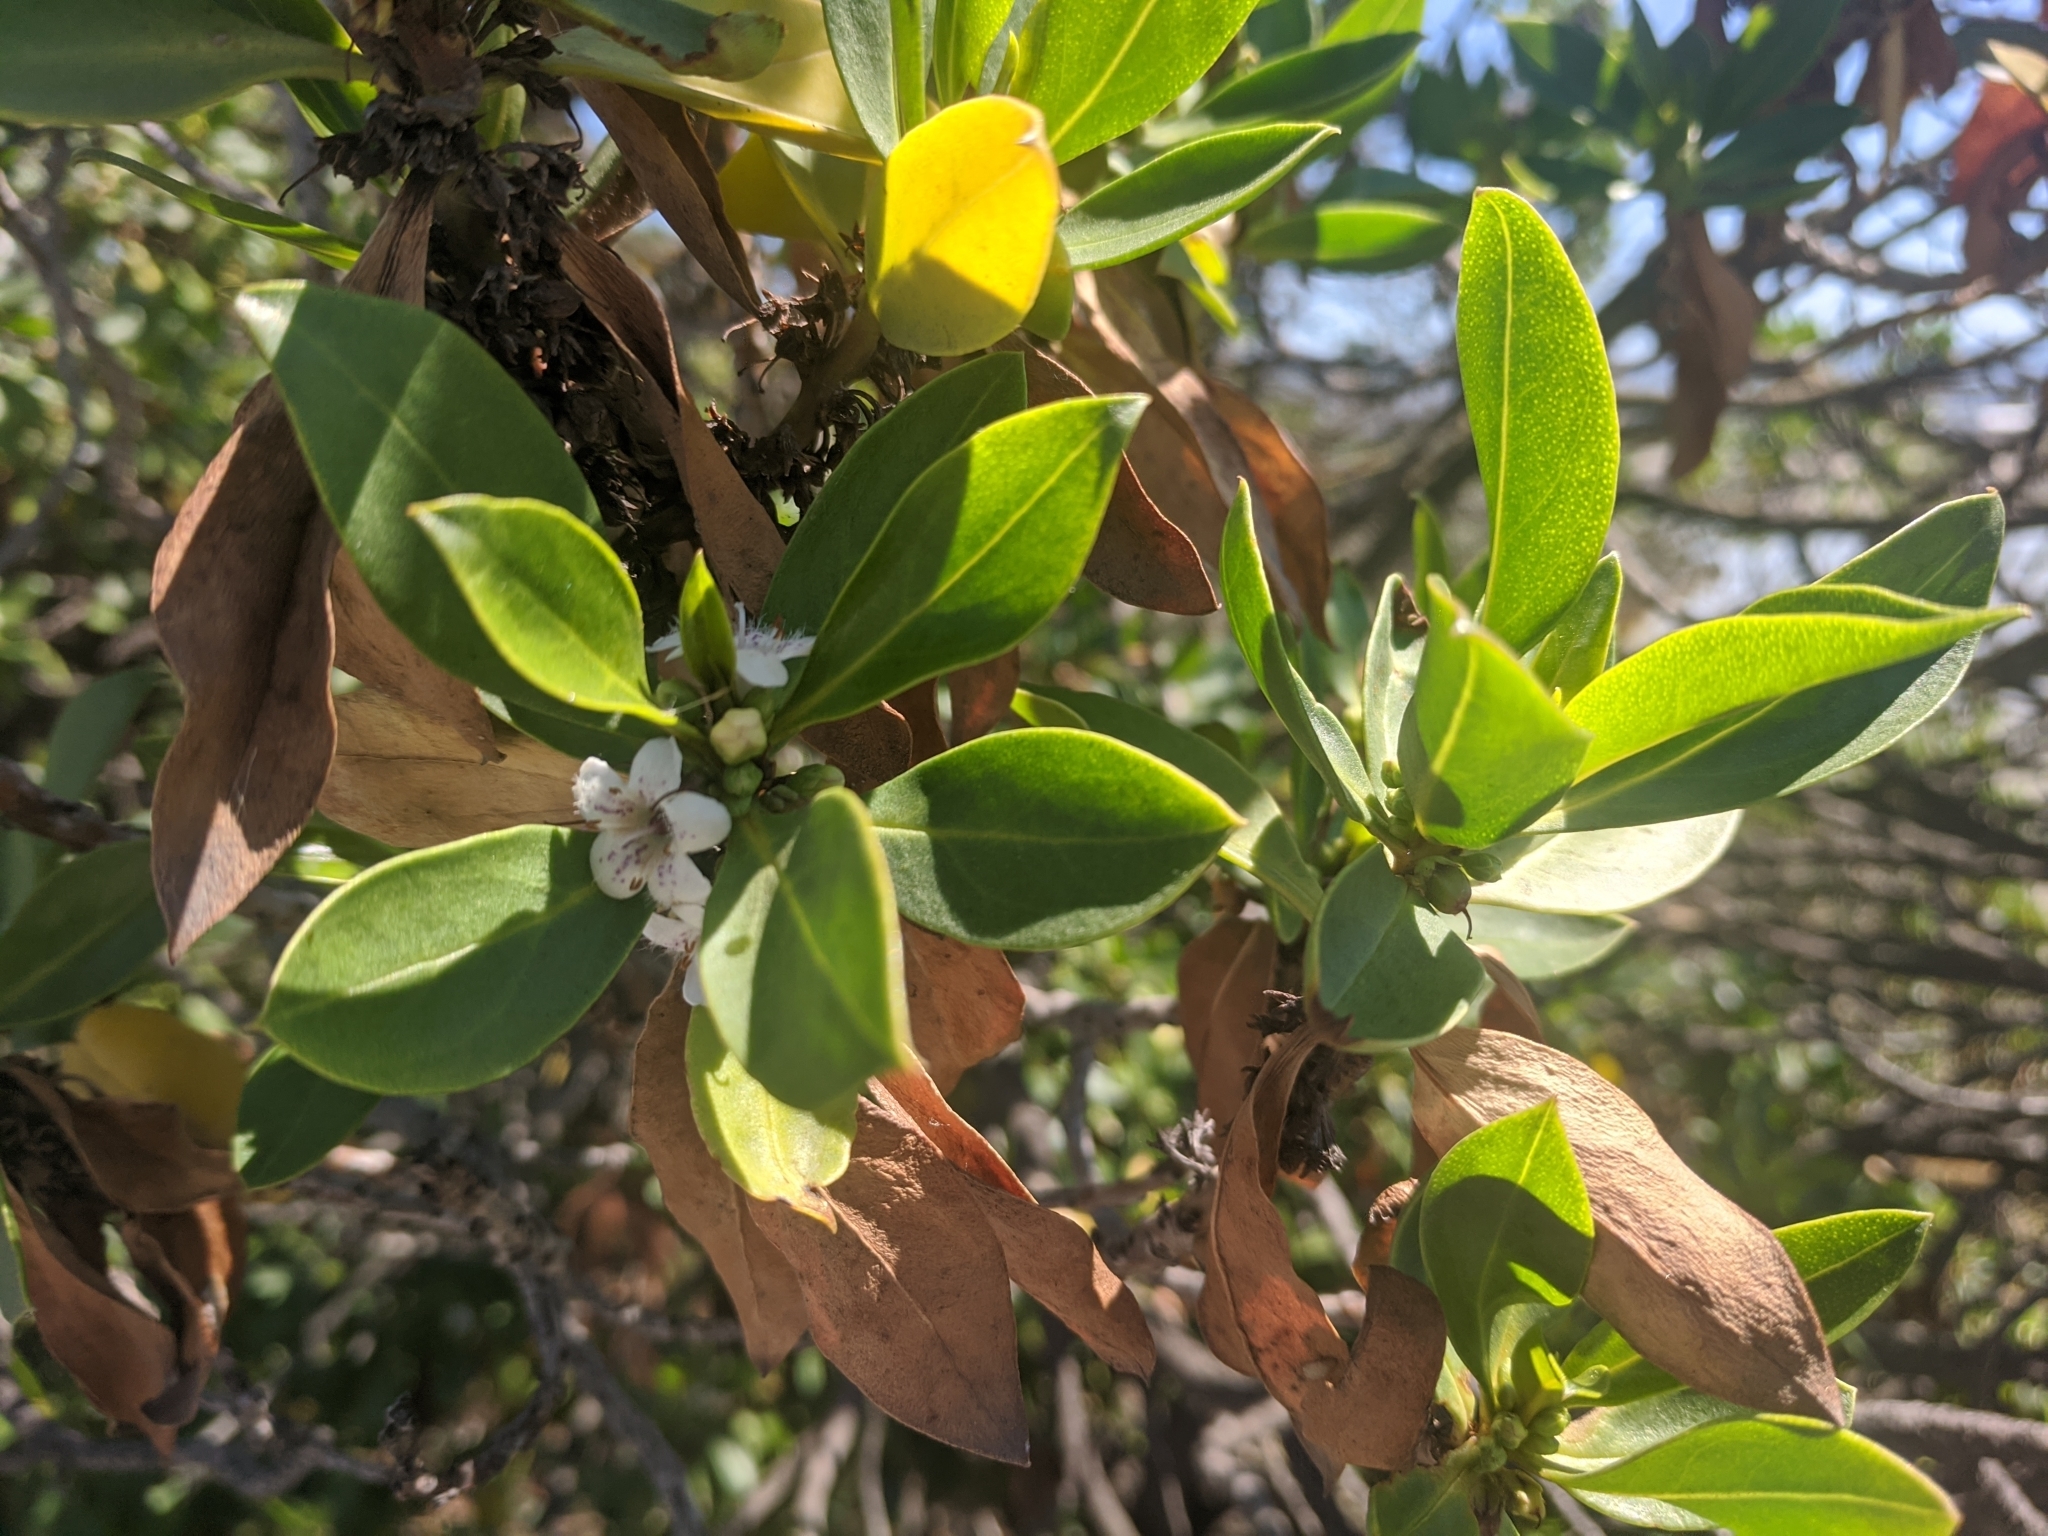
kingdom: Plantae
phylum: Tracheophyta
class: Magnoliopsida
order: Lamiales
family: Scrophulariaceae
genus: Myoporum
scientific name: Myoporum laetum
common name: Ngaio tree
